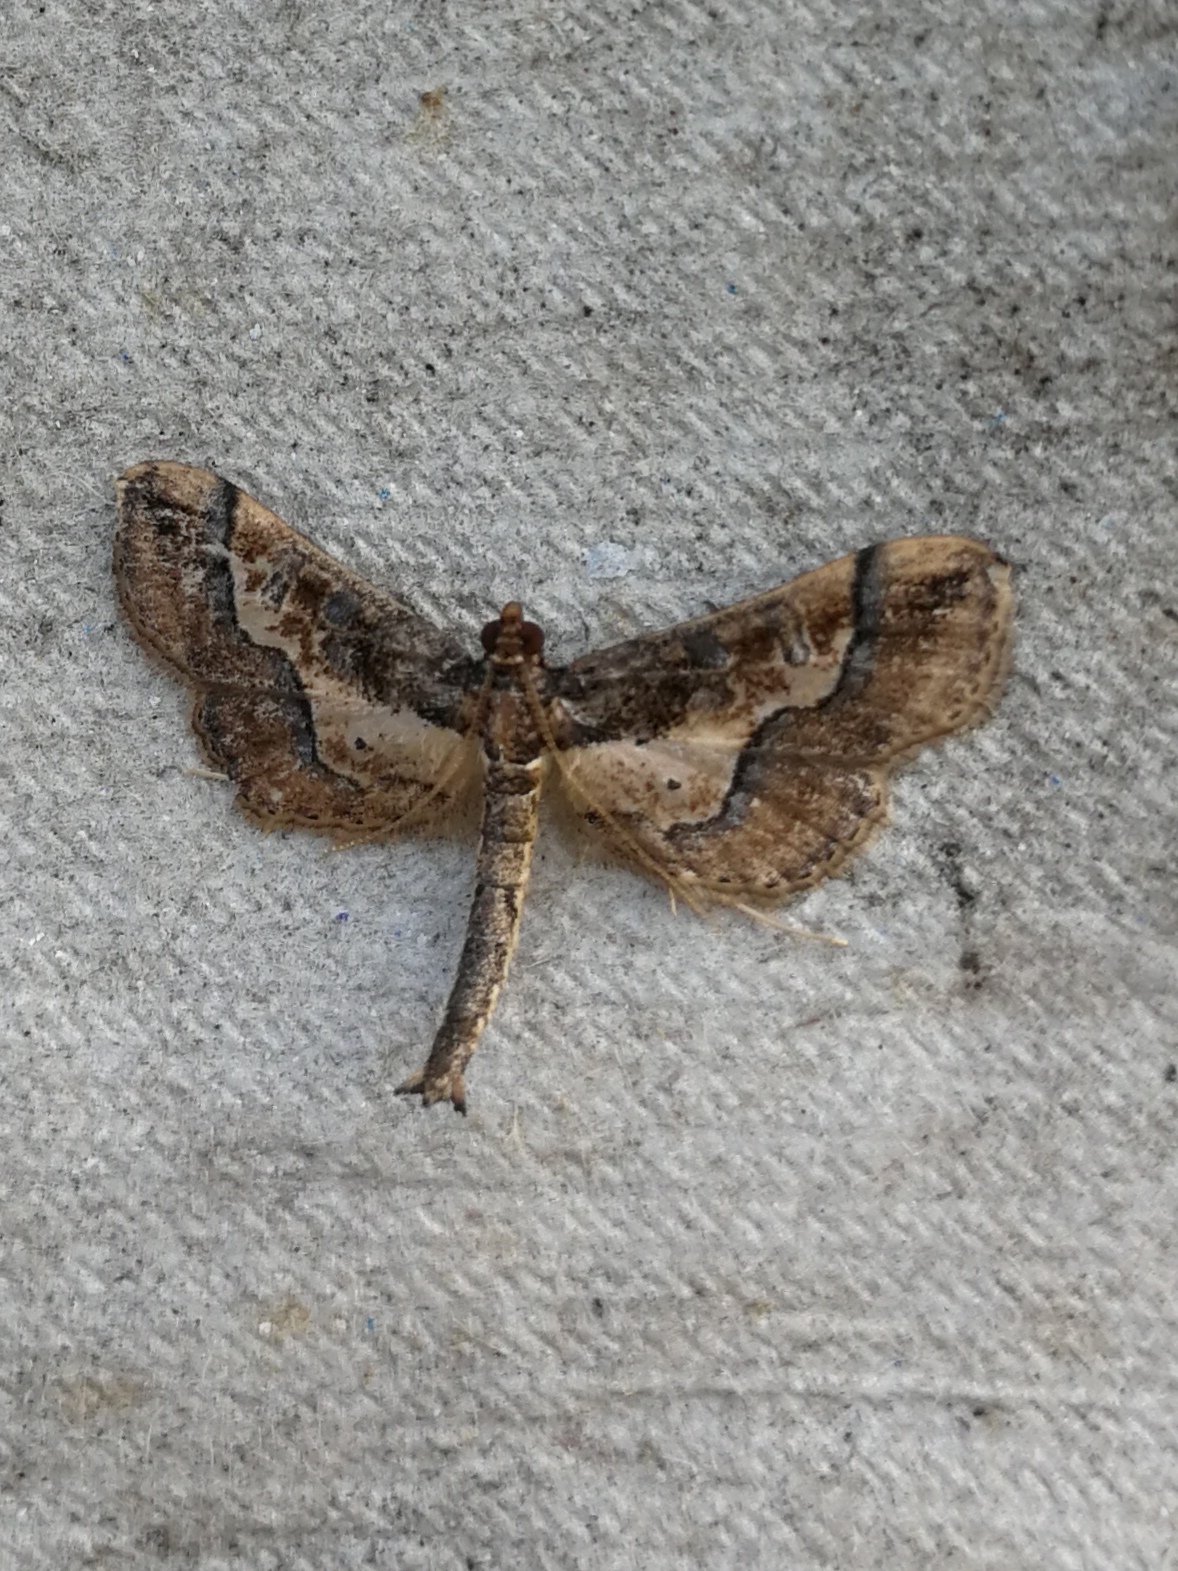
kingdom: Animalia
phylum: Arthropoda
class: Insecta
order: Lepidoptera
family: Crambidae
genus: Hydriris
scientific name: Hydriris ornatalis
